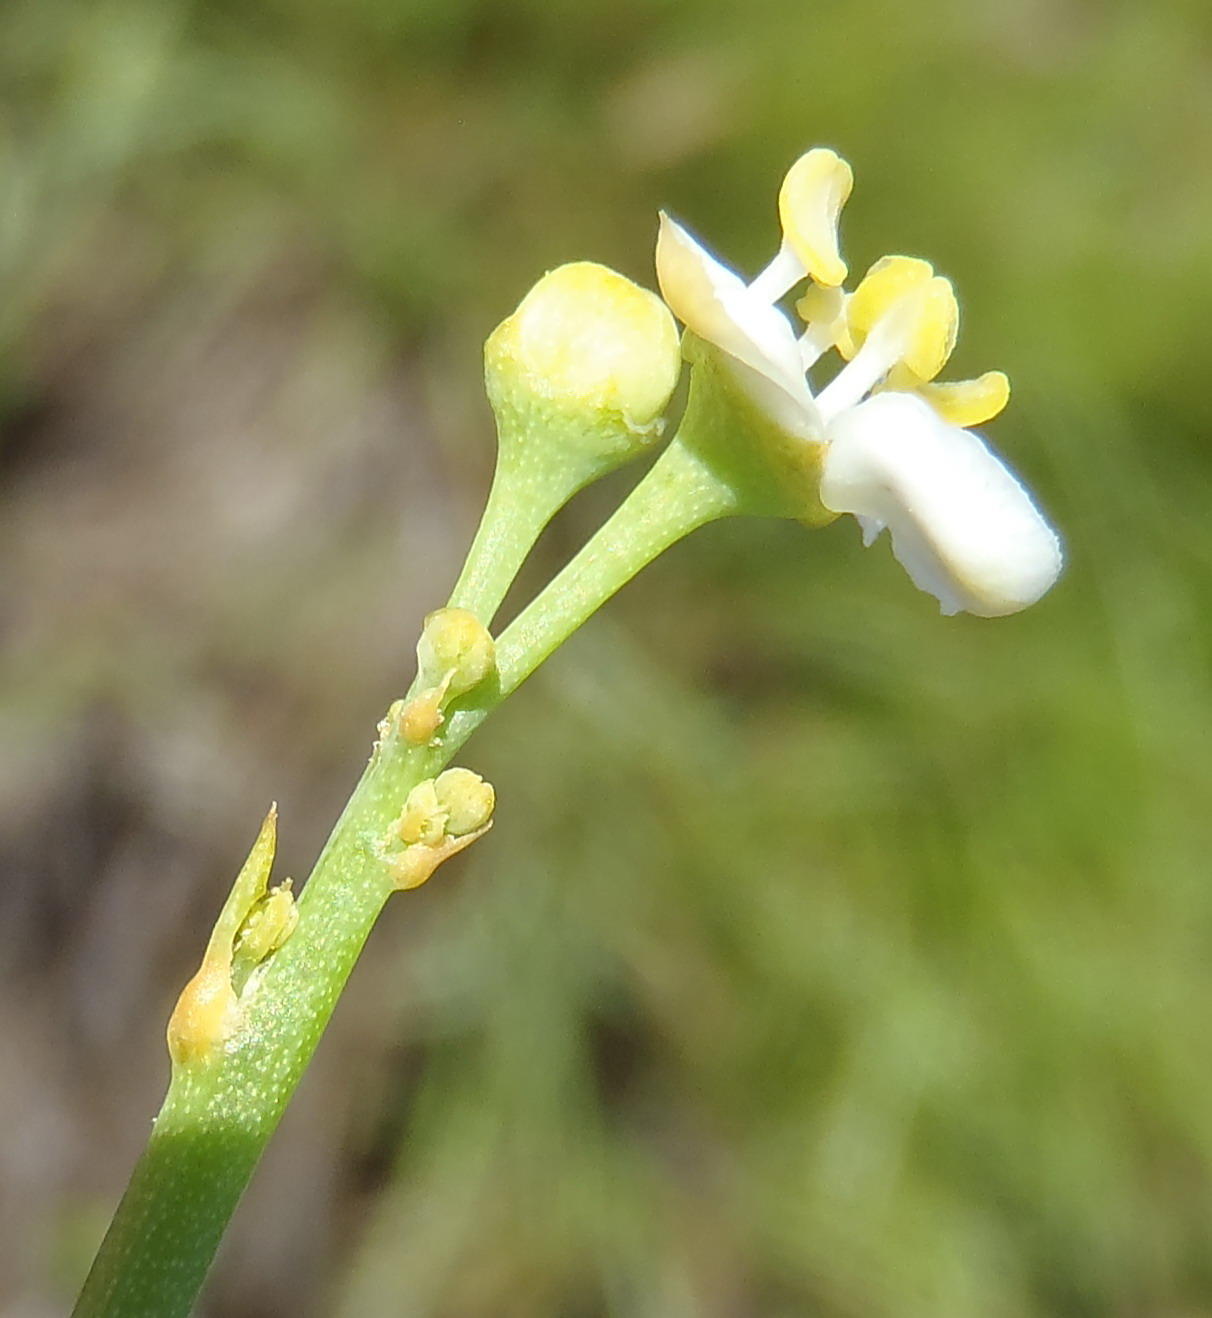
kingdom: Plantae
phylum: Tracheophyta
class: Magnoliopsida
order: Solanales
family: Montiniaceae
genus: Montinia
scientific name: Montinia caryophyllacea
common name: Wild clove-bush
